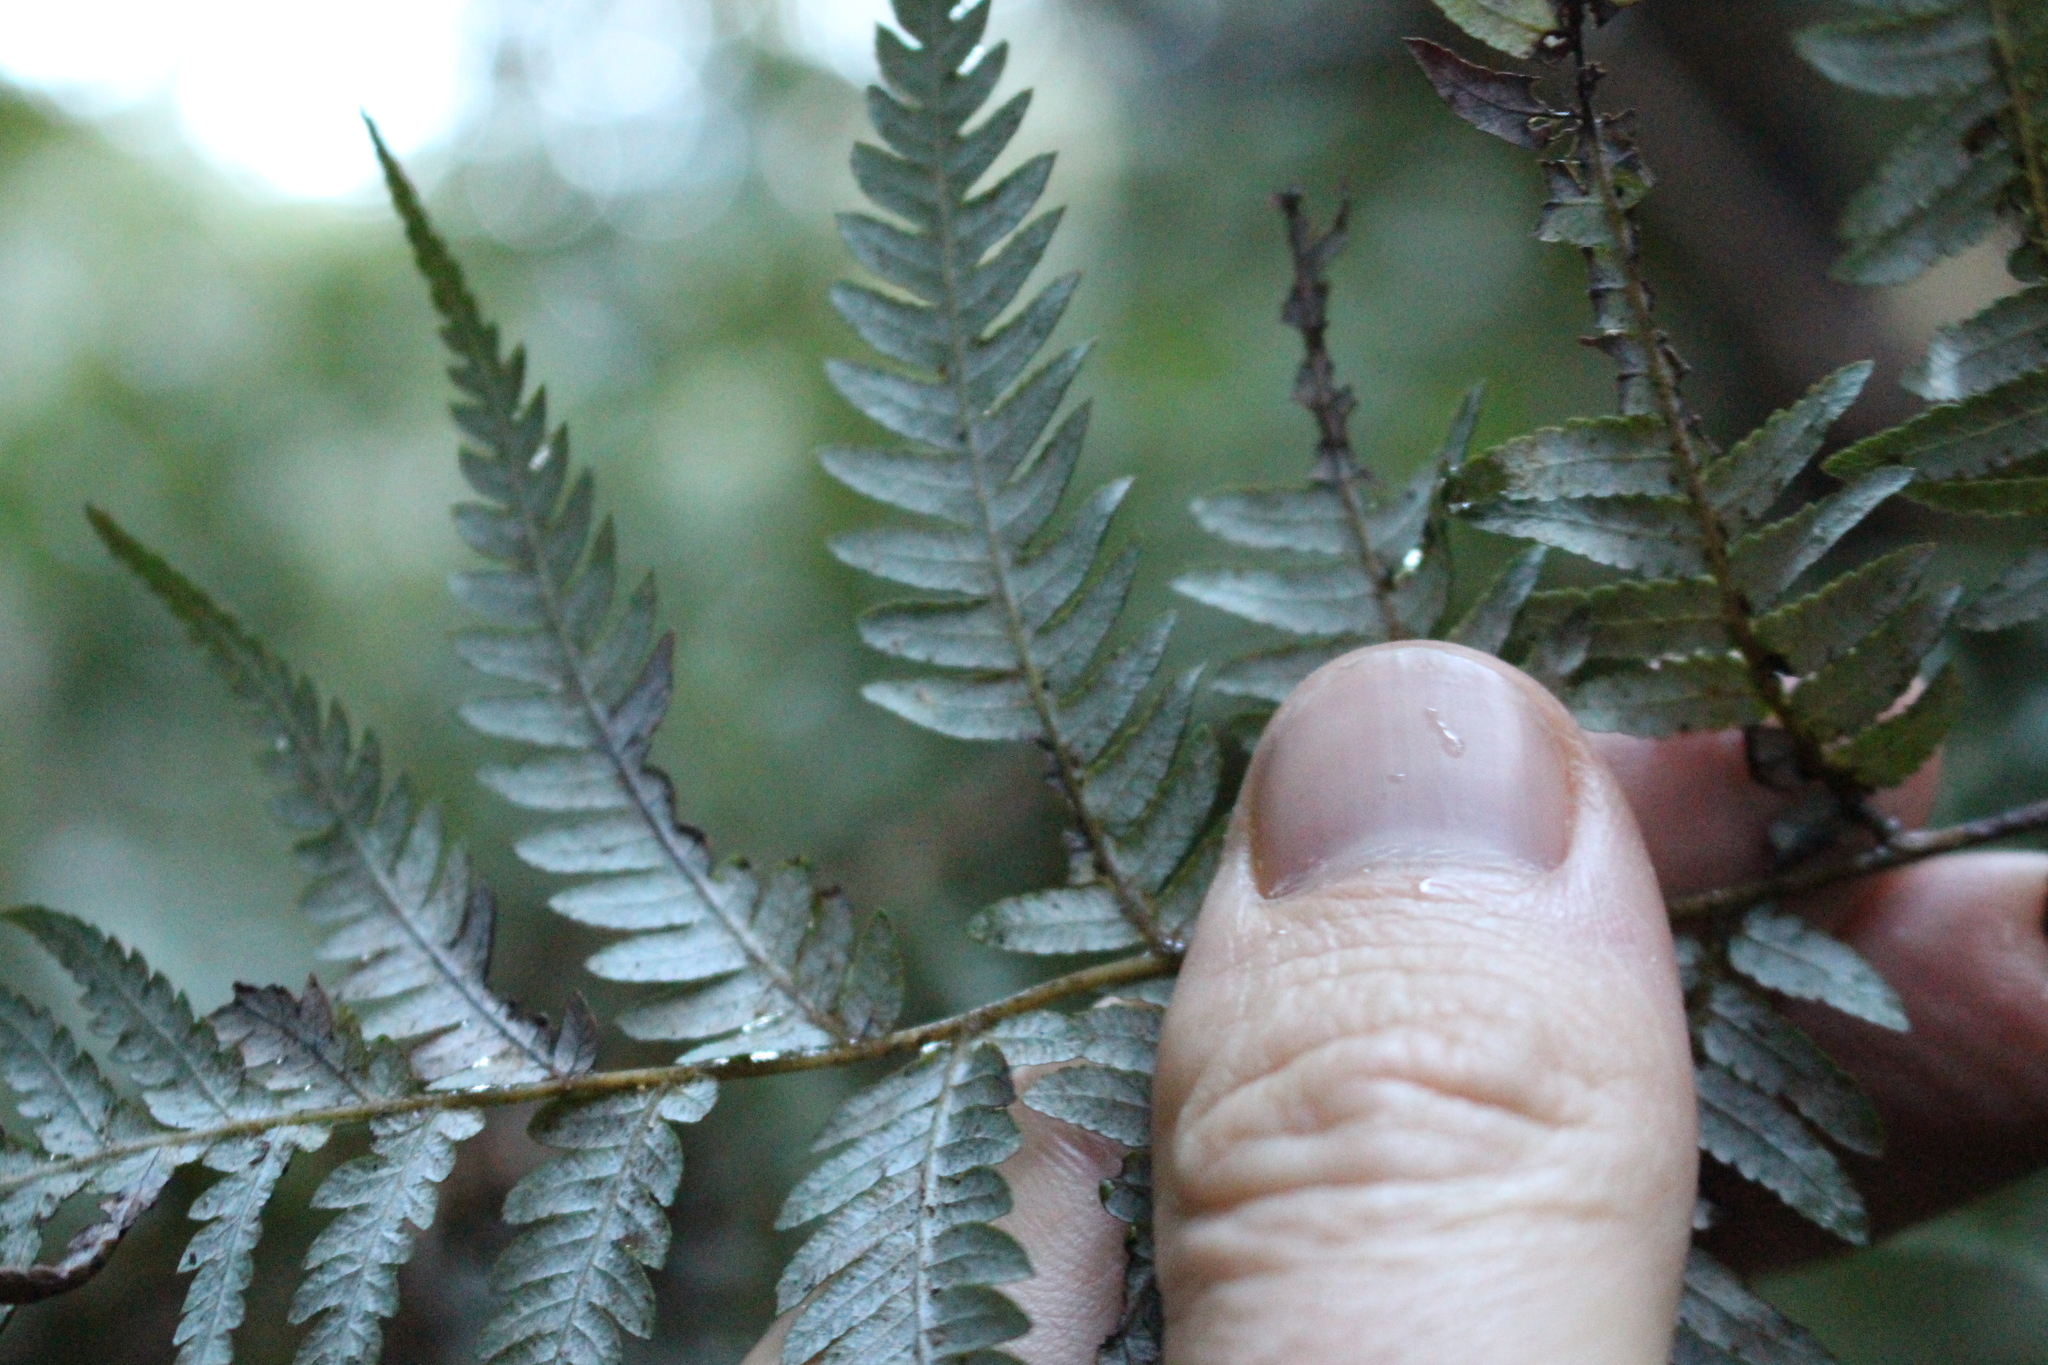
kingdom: Plantae
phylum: Tracheophyta
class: Polypodiopsida
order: Cyatheales
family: Cyatheaceae
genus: Alsophila
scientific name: Alsophila dealbata
